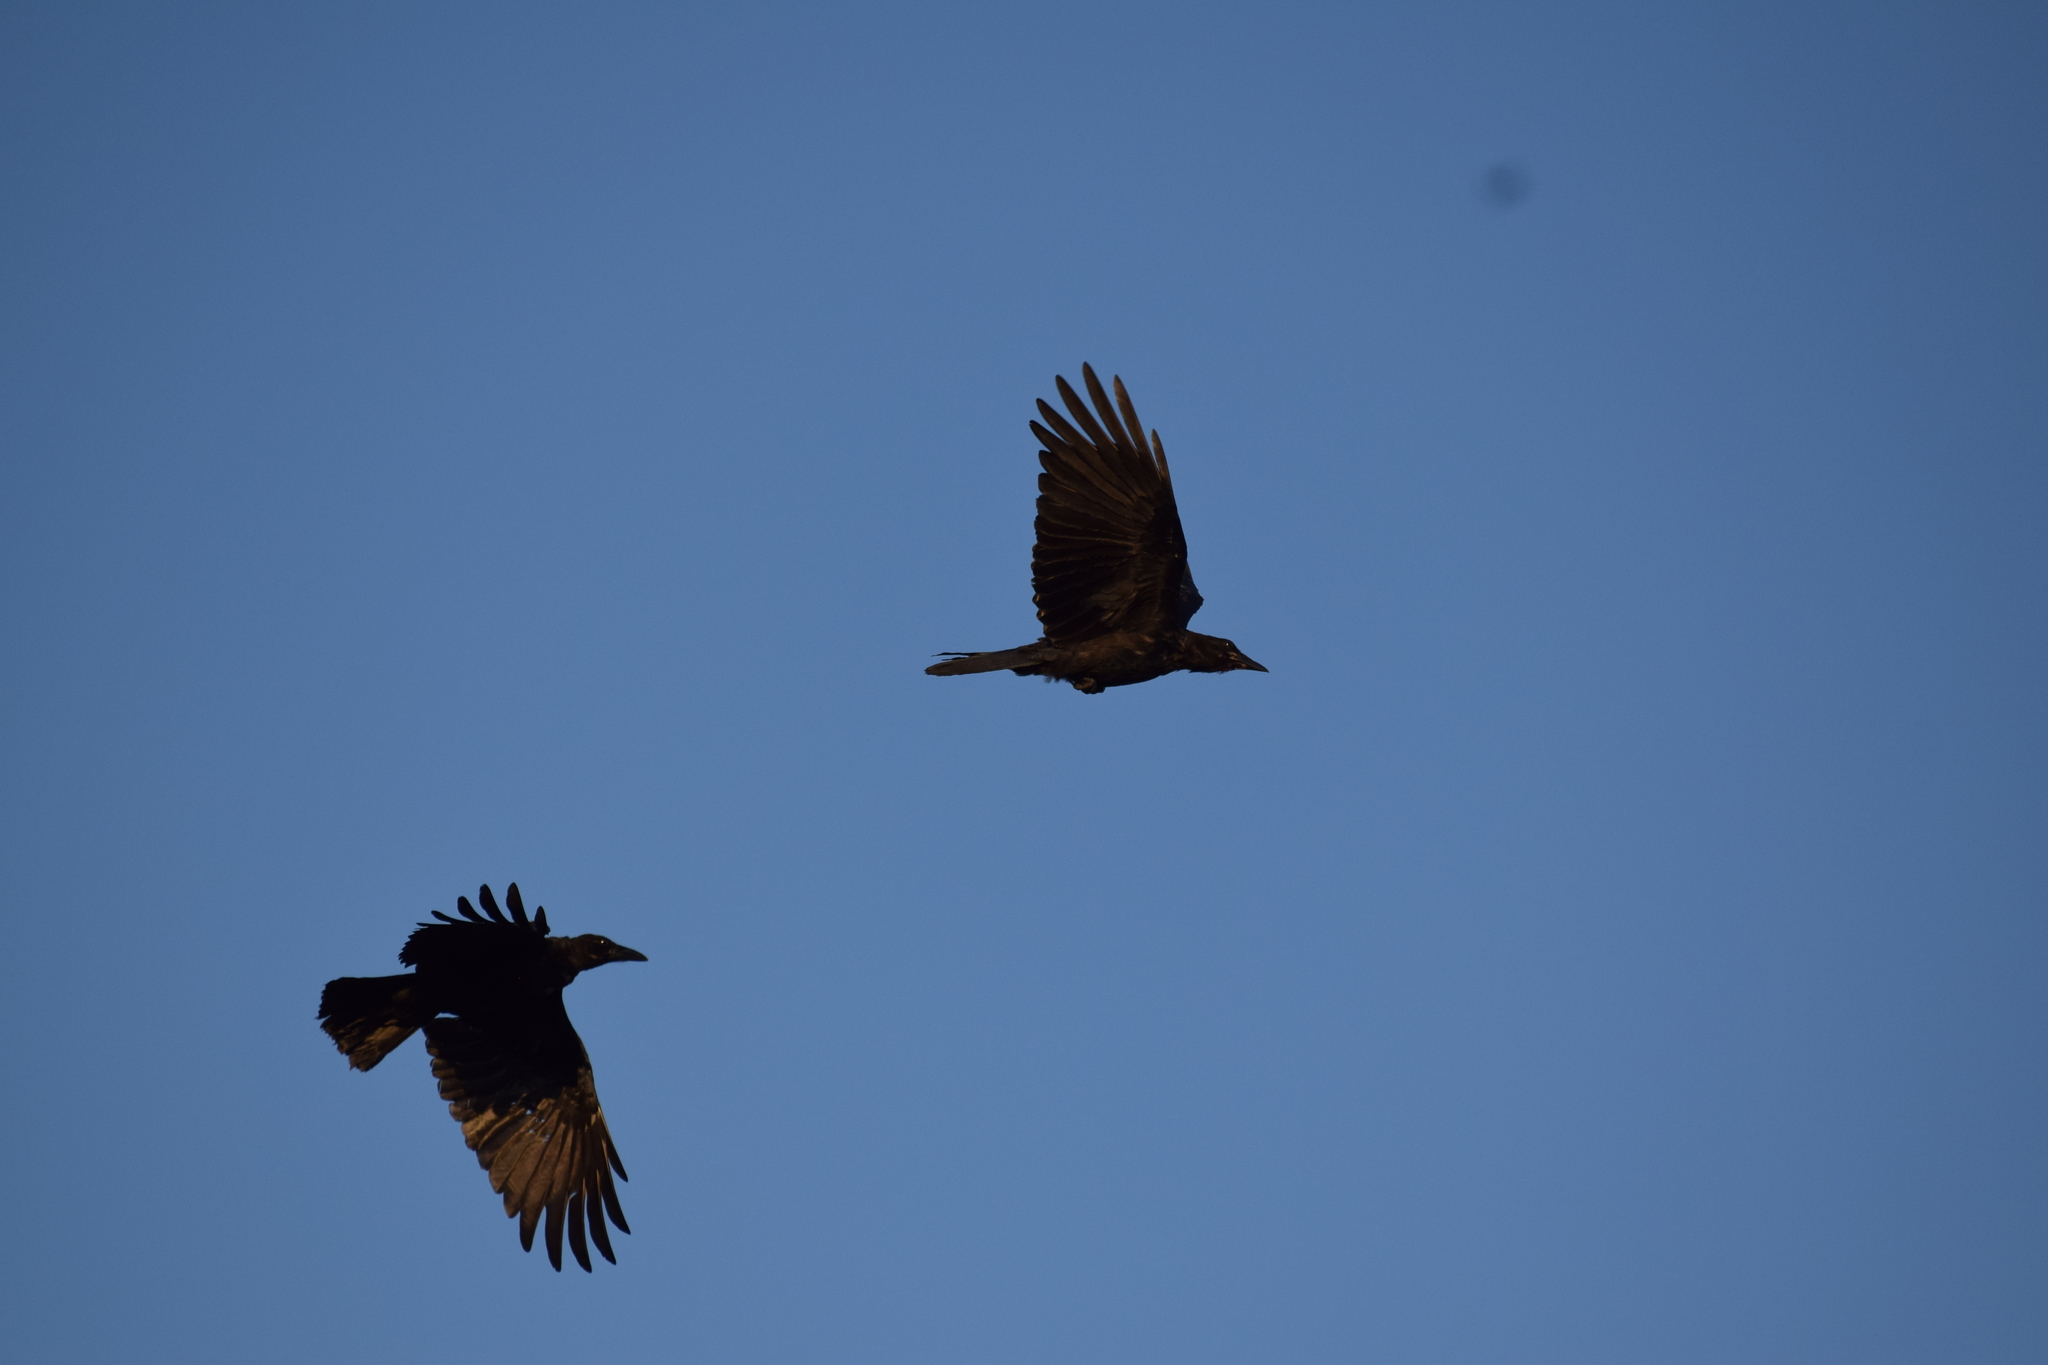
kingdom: Animalia
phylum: Chordata
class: Aves
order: Passeriformes
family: Corvidae
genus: Corvus
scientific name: Corvus brachyrhynchos
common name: American crow
